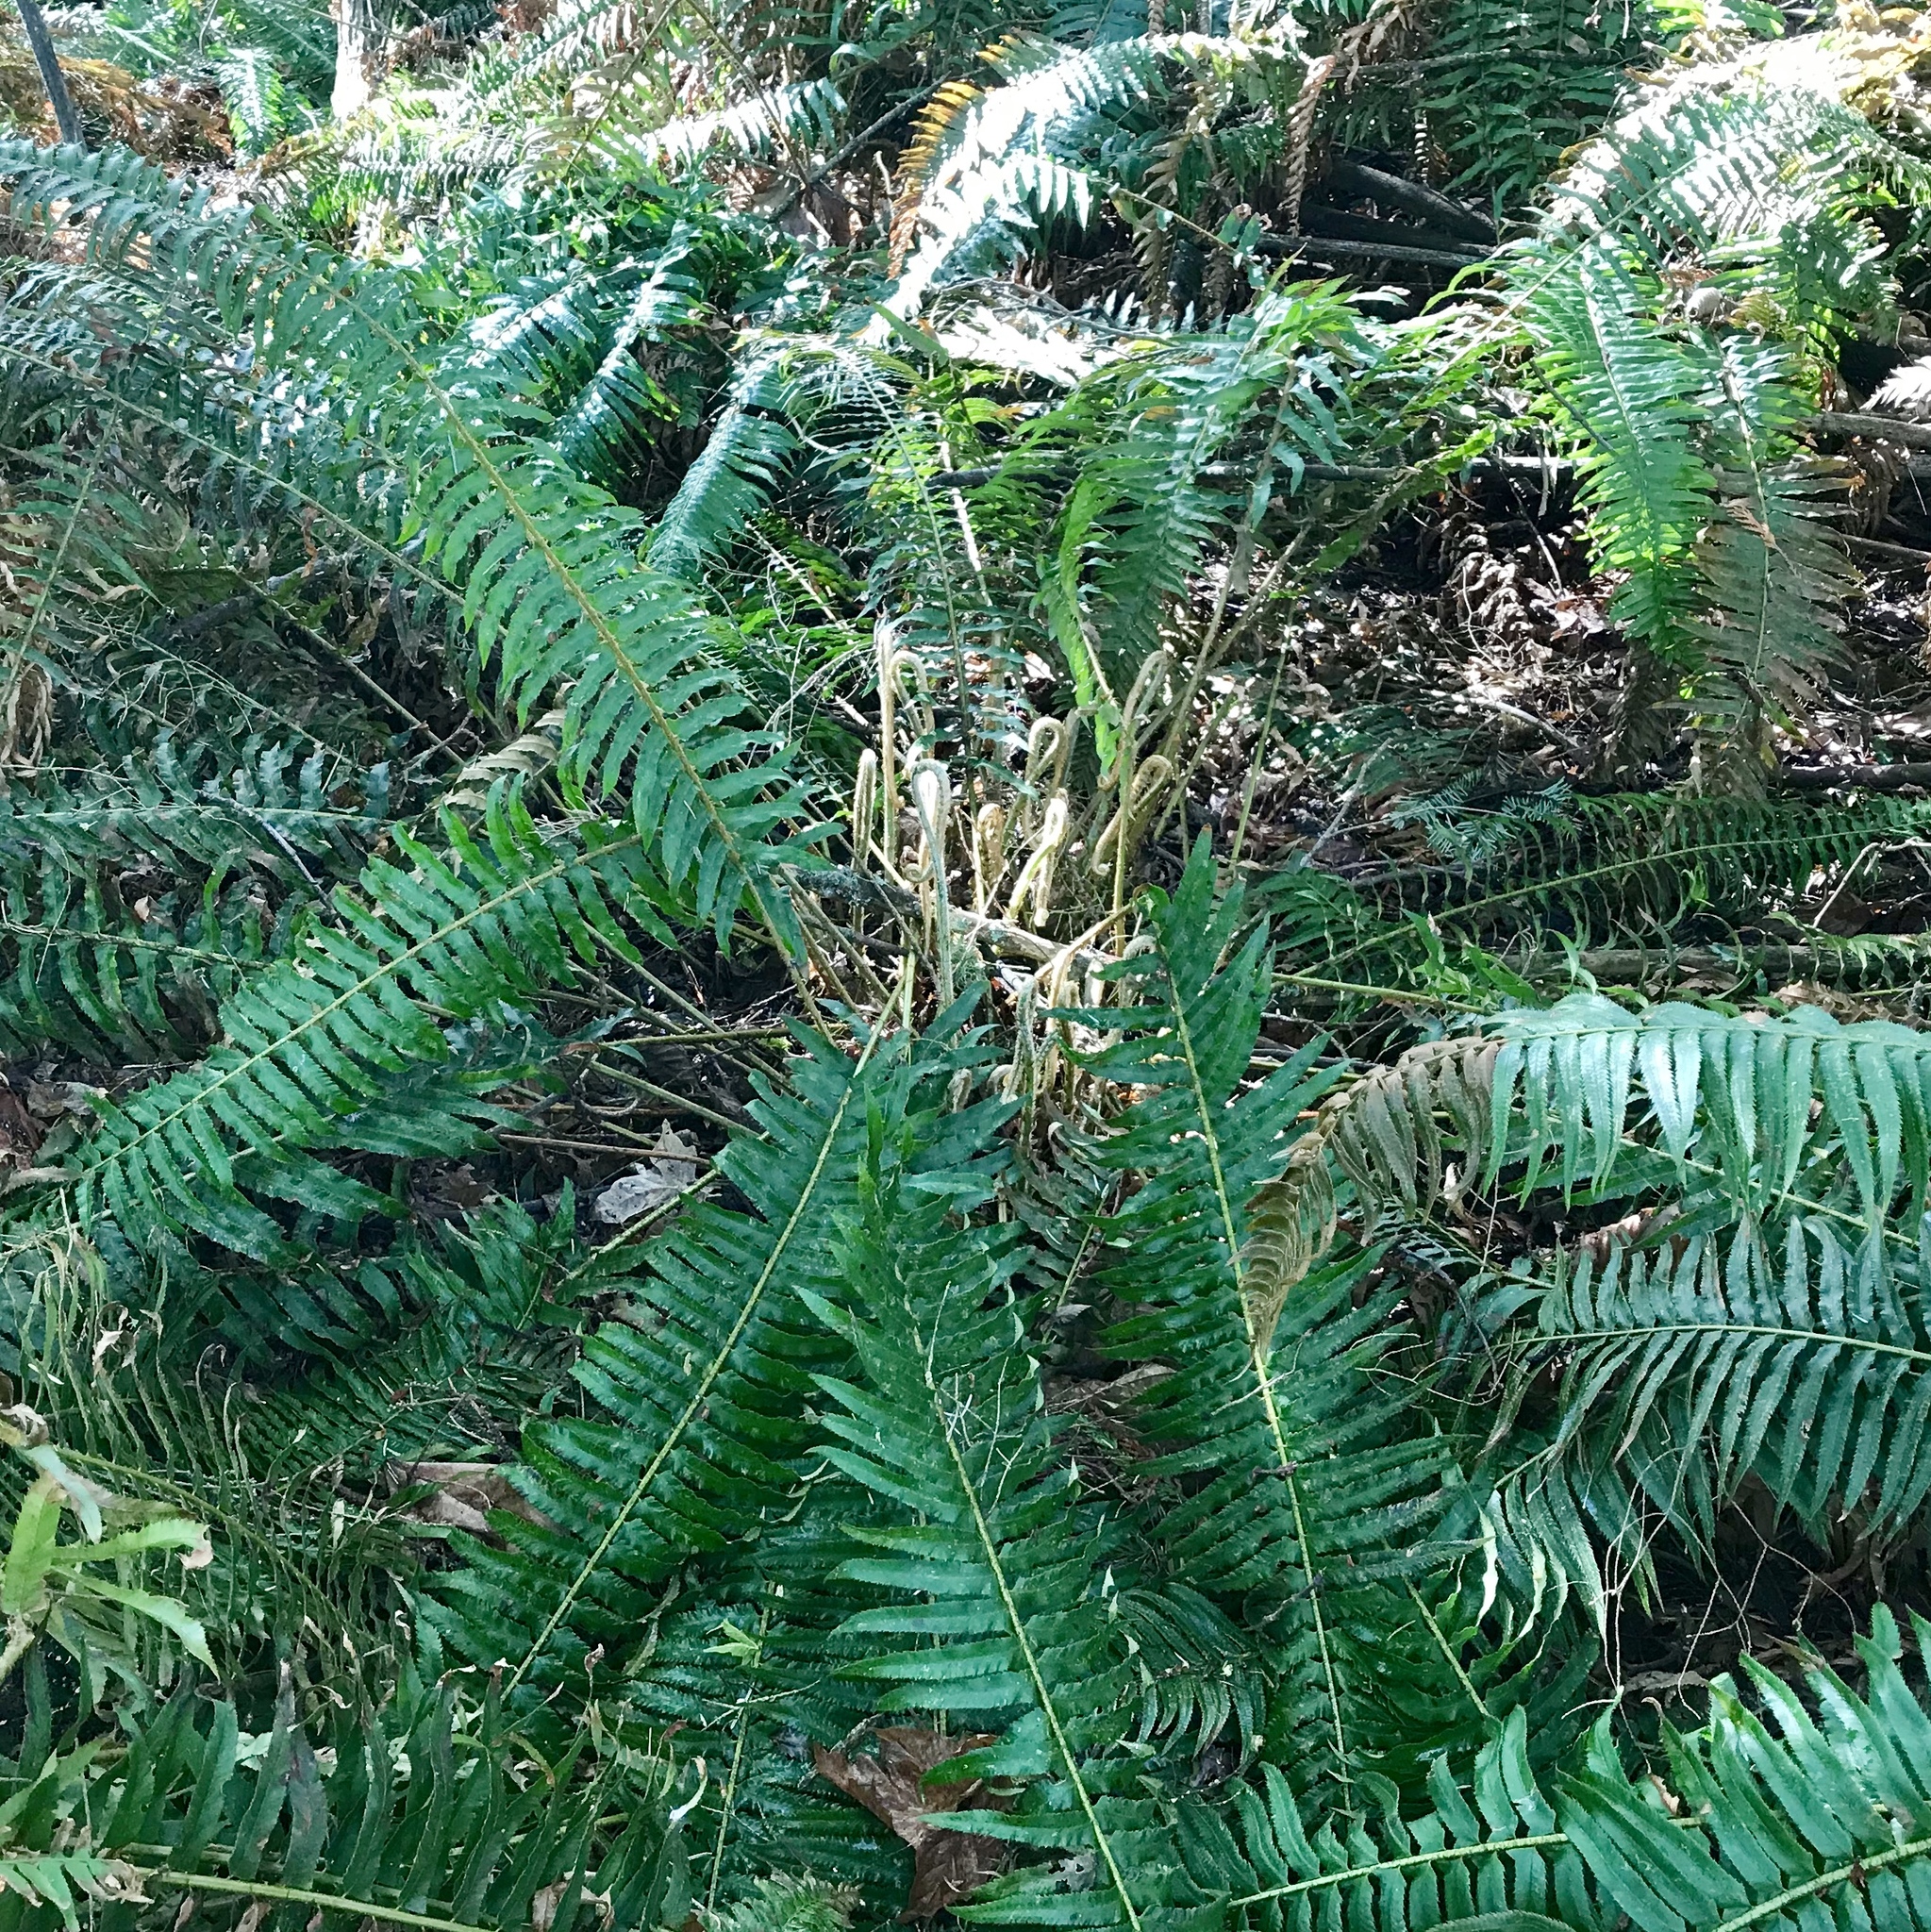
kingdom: Plantae
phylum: Tracheophyta
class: Polypodiopsida
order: Polypodiales
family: Dryopteridaceae
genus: Polystichum
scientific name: Polystichum munitum
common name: Western sword-fern
